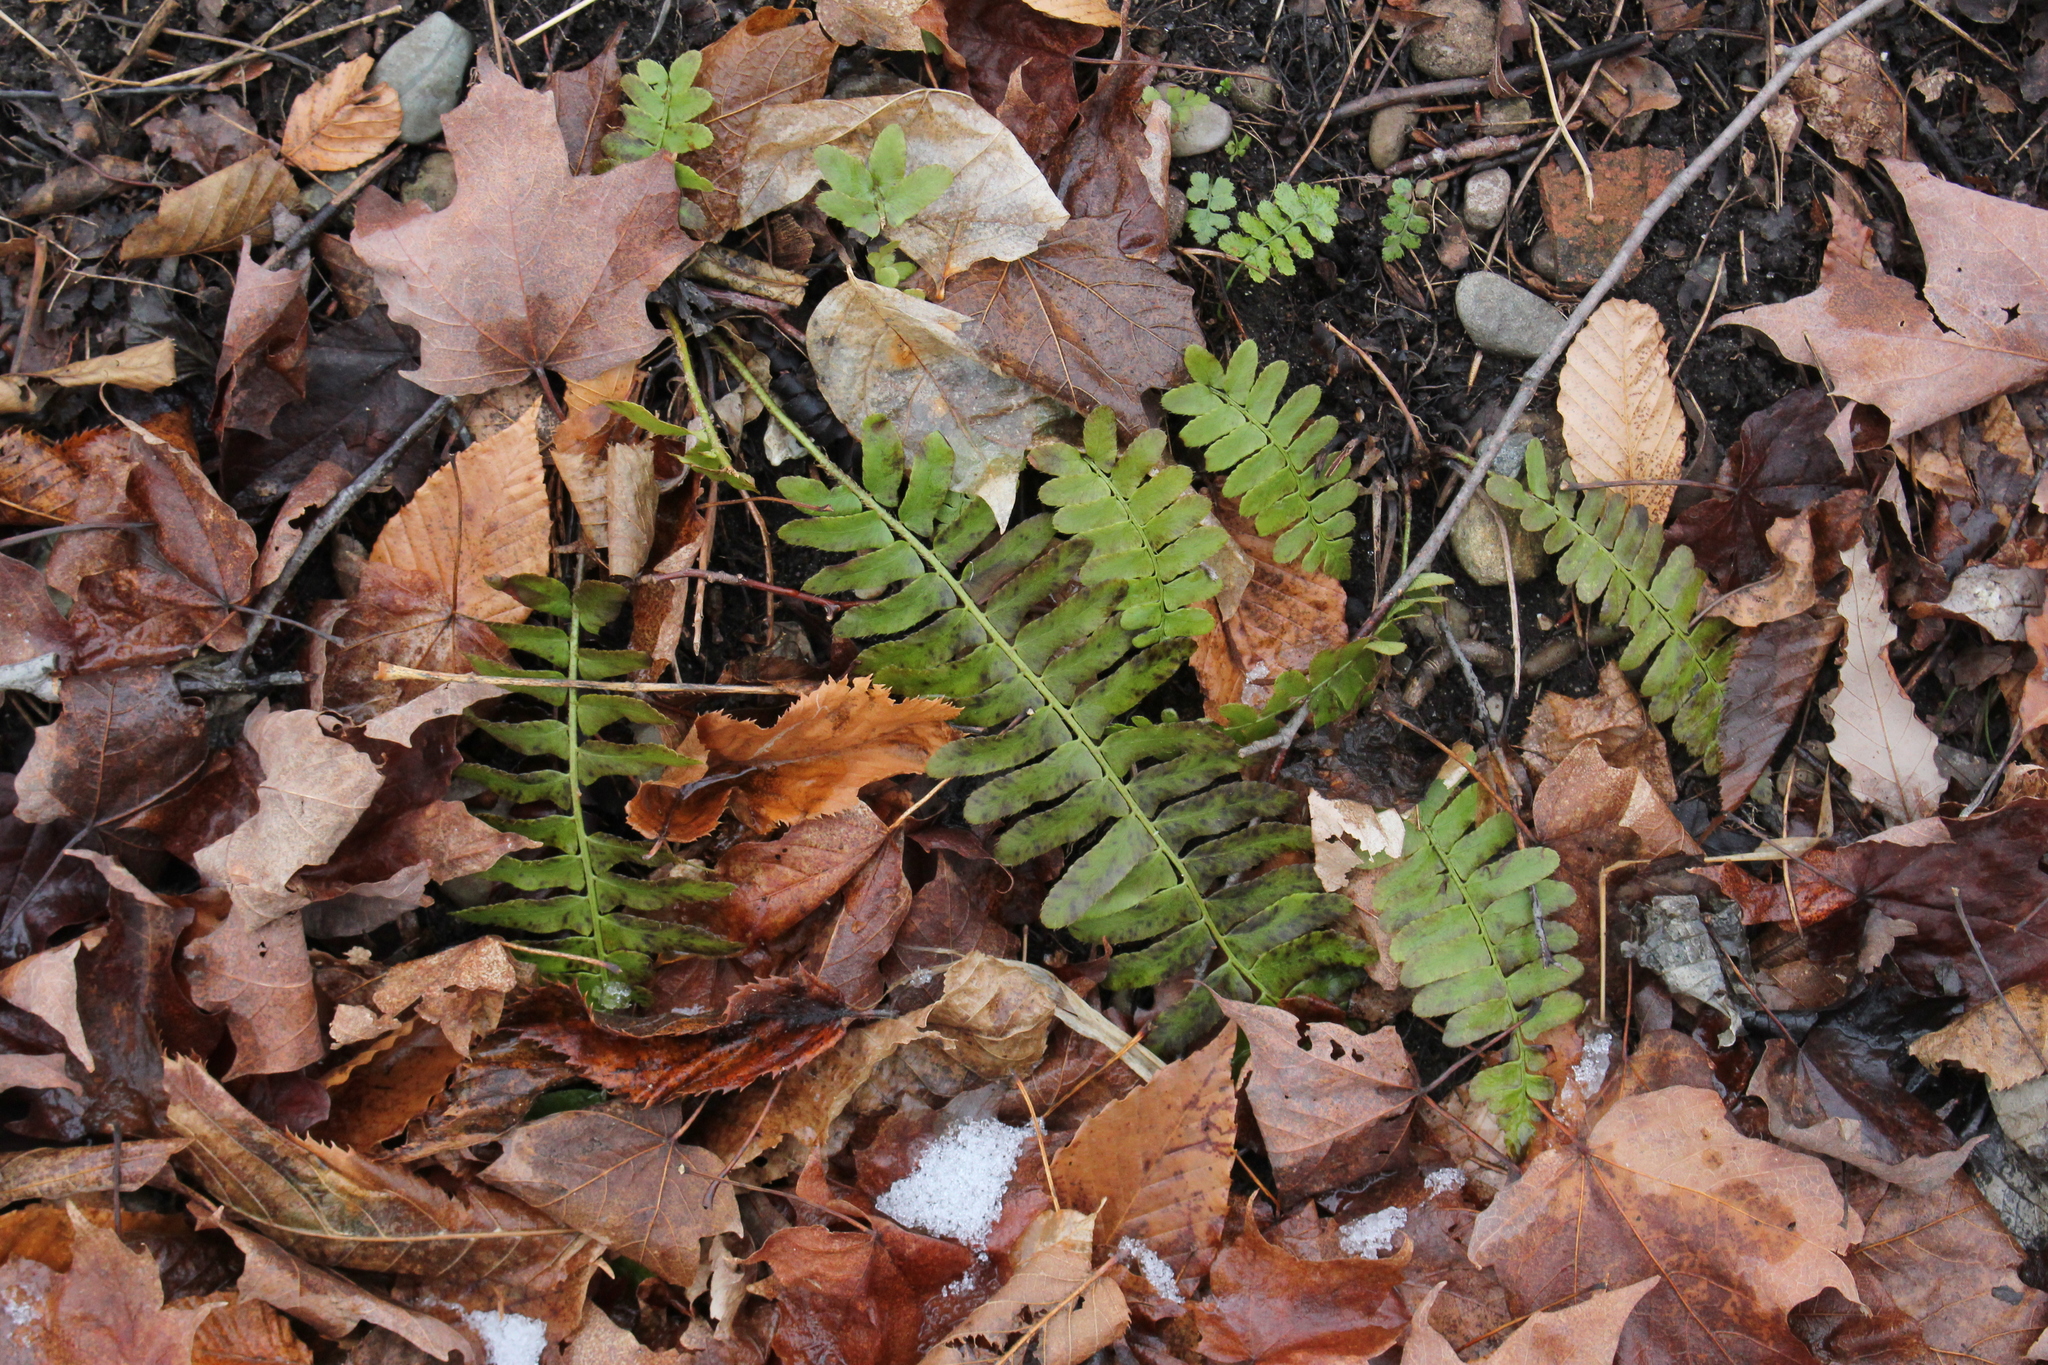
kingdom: Plantae
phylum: Tracheophyta
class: Polypodiopsida
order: Polypodiales
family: Dryopteridaceae
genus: Polystichum
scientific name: Polystichum acrostichoides
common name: Christmas fern
